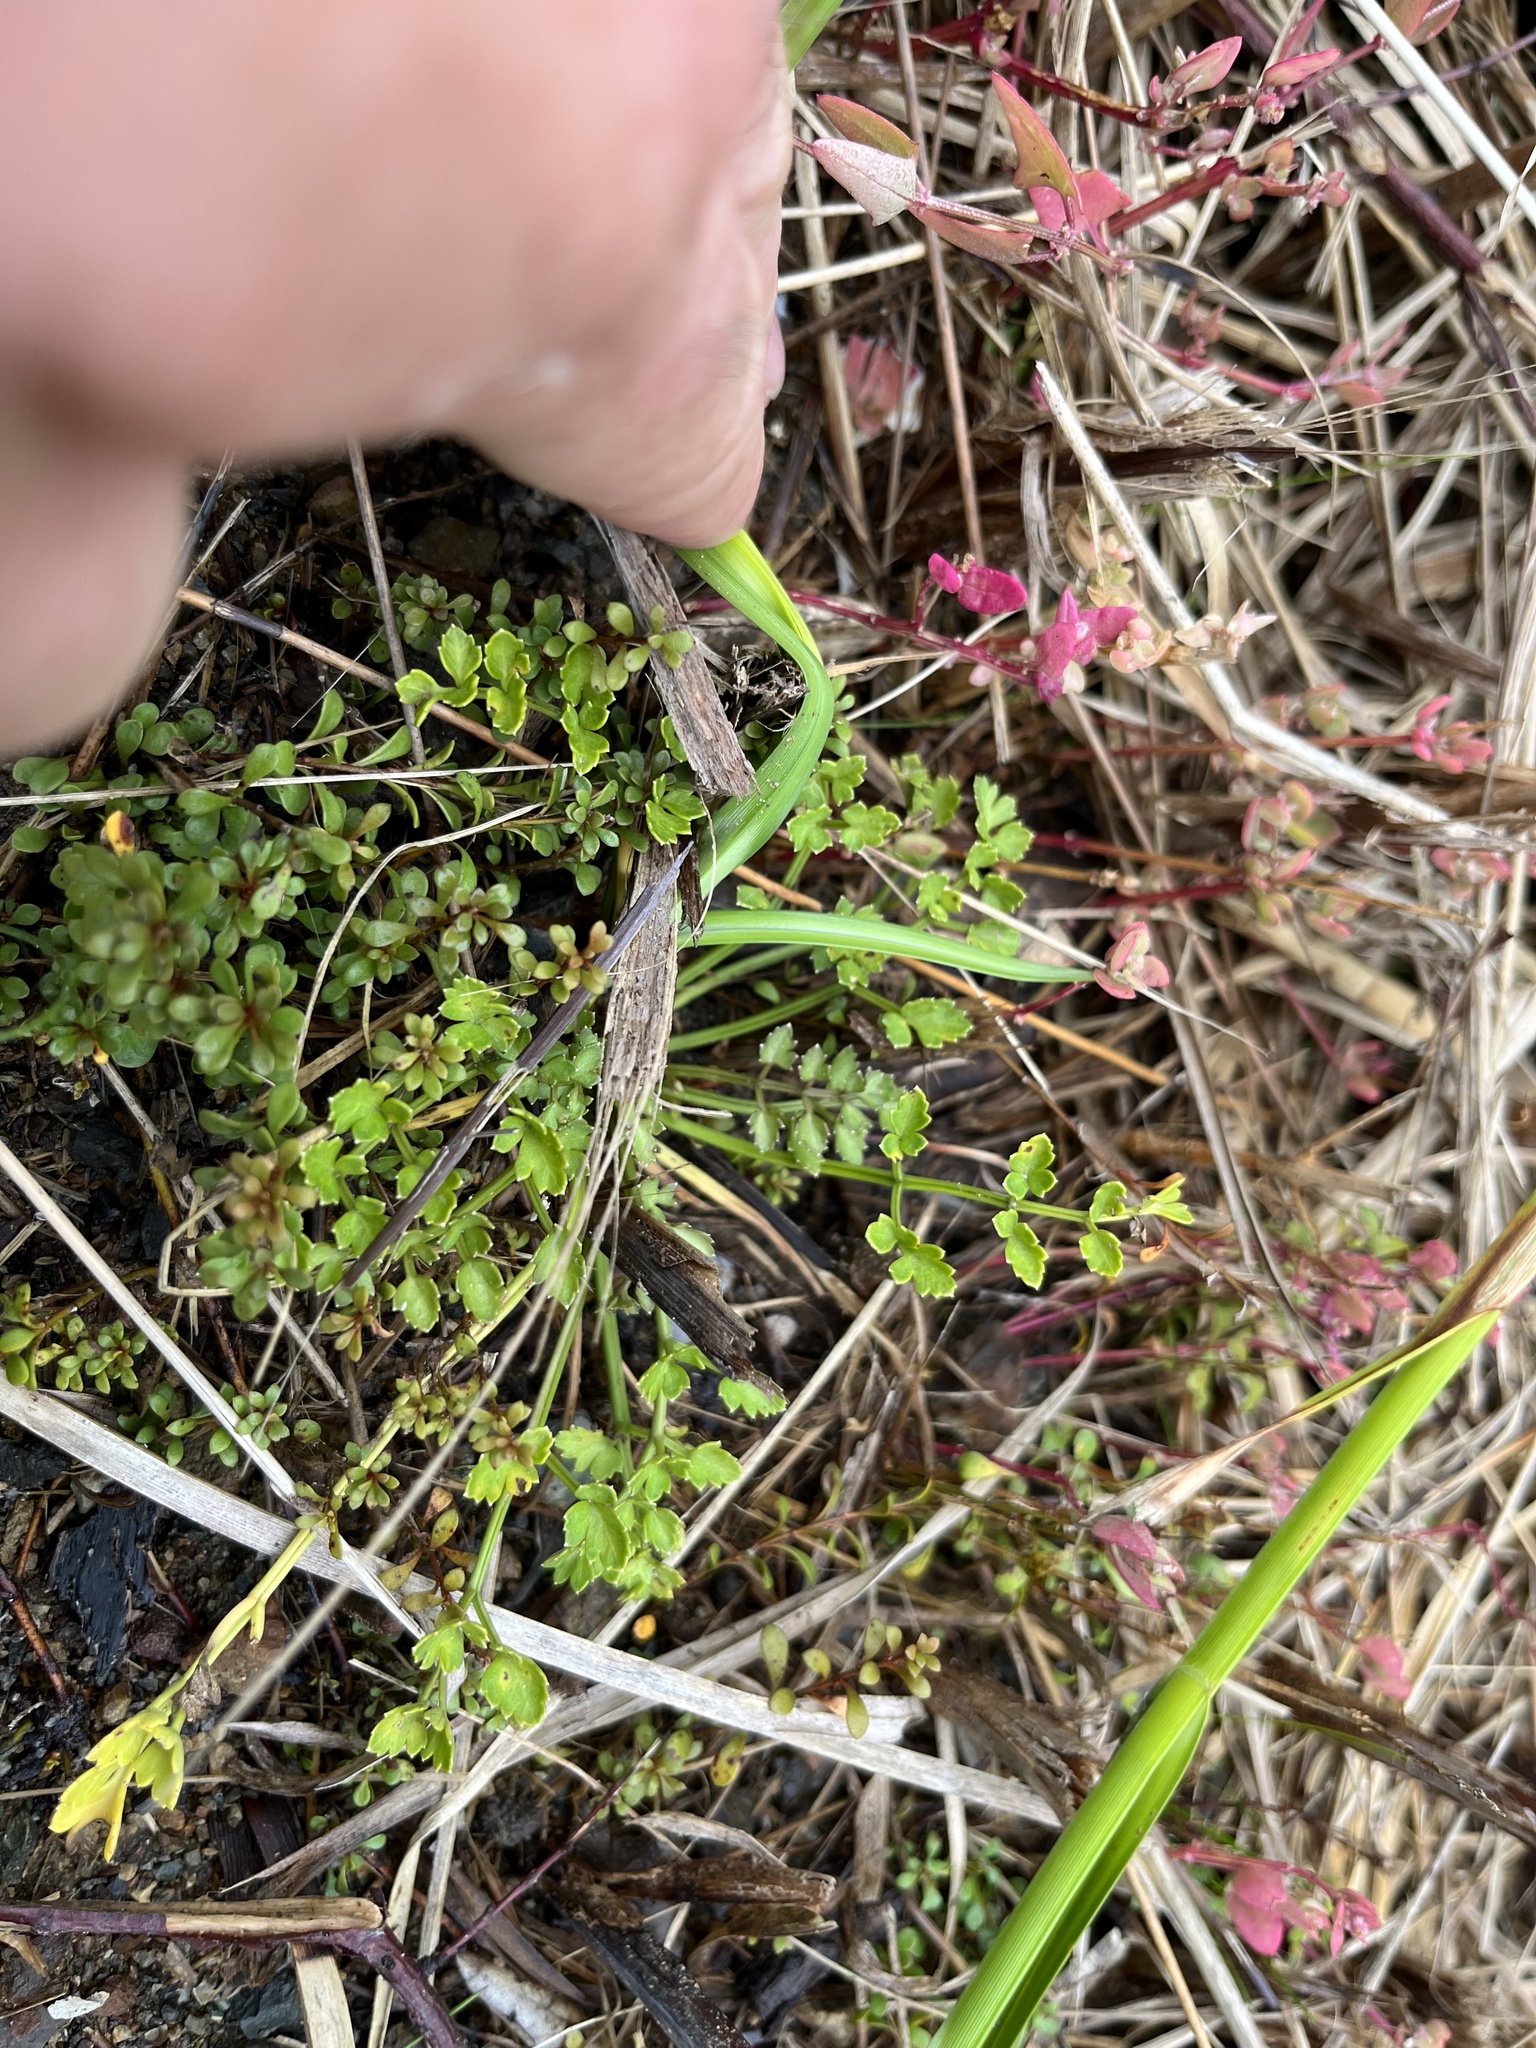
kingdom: Plantae
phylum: Tracheophyta
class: Magnoliopsida
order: Apiales
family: Apiaceae
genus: Apium
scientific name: Apium prostratum
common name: Prostrate marshwort
